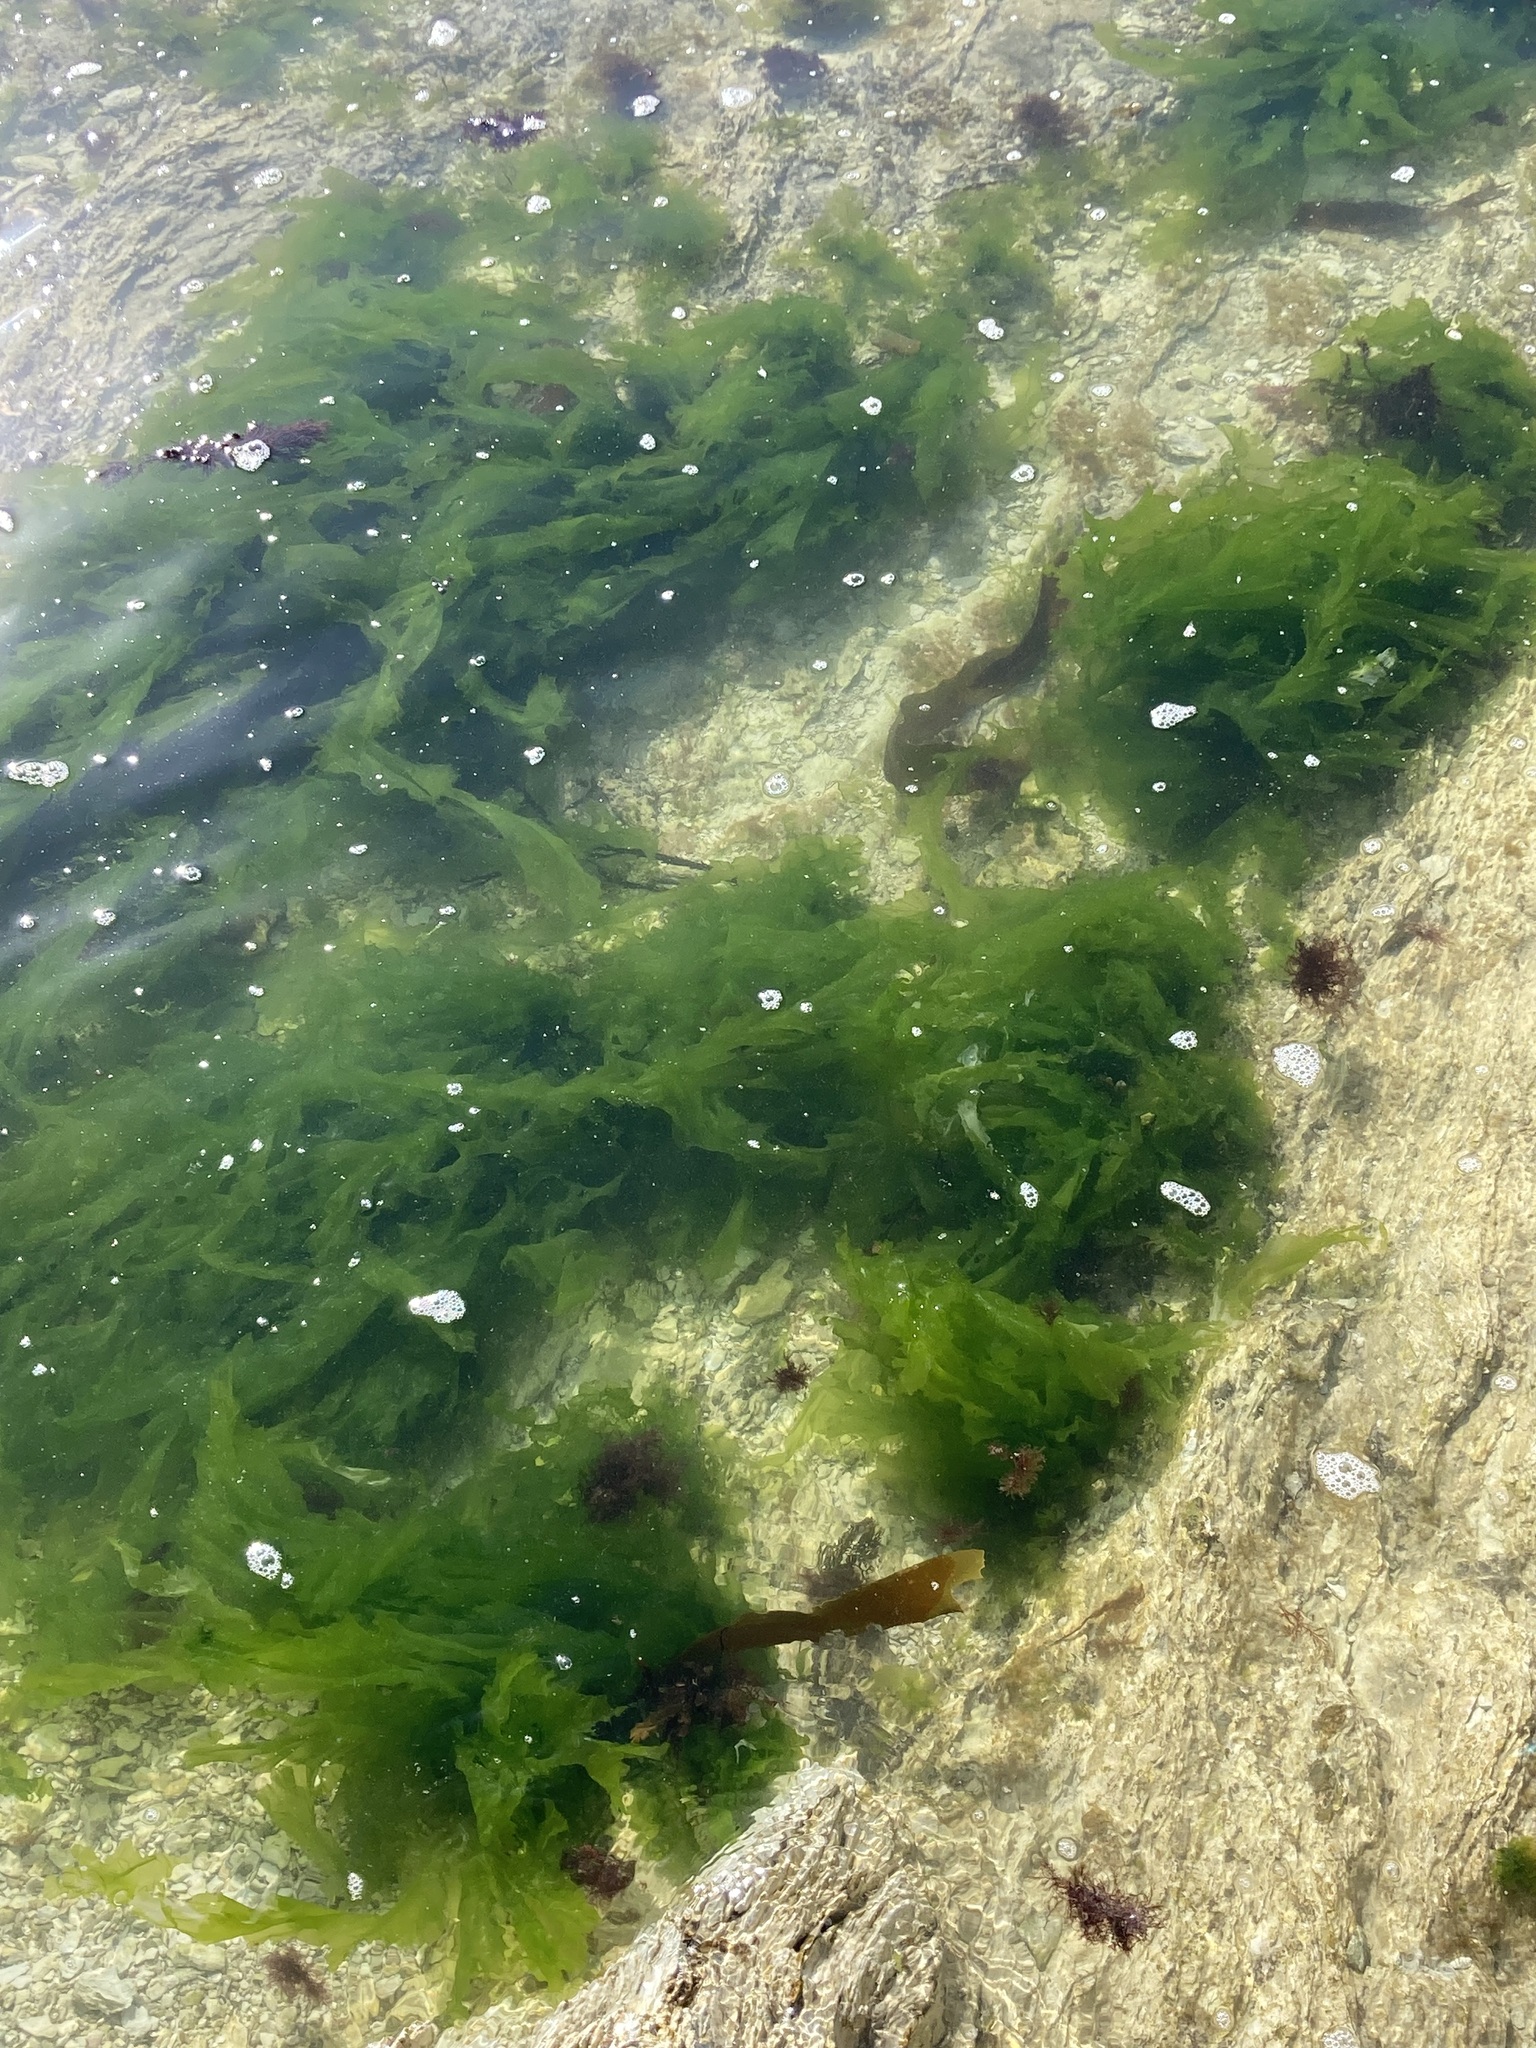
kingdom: Plantae
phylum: Chlorophyta
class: Ulvophyceae
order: Ulvales
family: Ulvaceae
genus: Ulva
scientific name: Ulva
